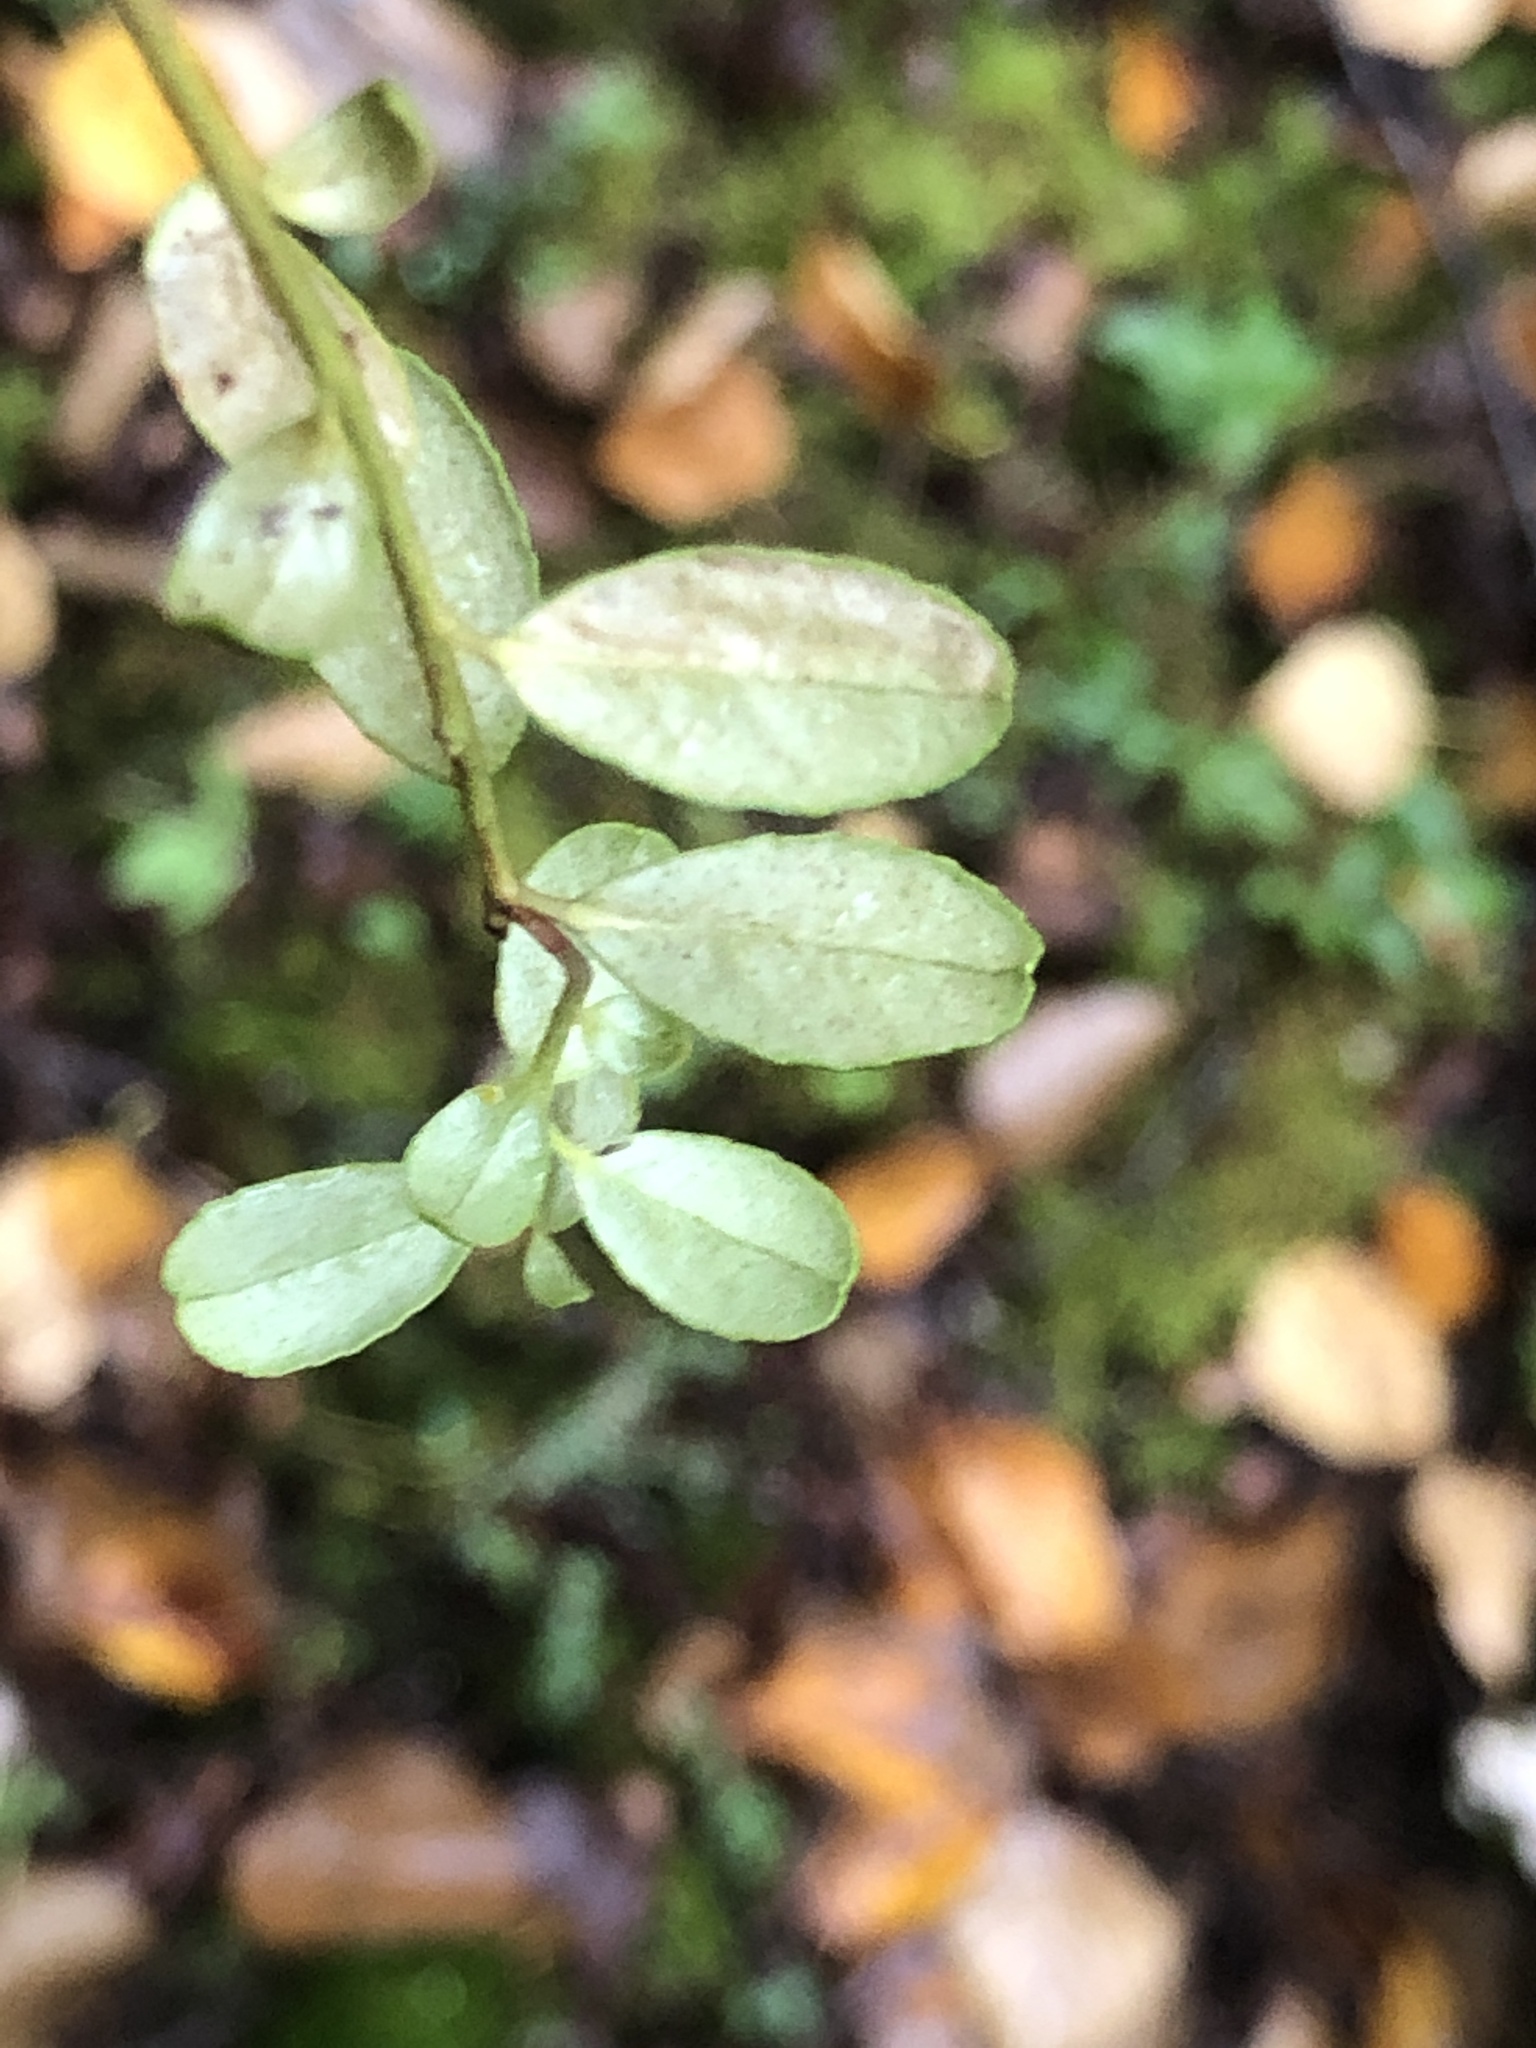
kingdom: Plantae
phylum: Tracheophyta
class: Magnoliopsida
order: Ericales
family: Ericaceae
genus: Vaccinium
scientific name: Vaccinium vitis-idaea
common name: Cowberry
